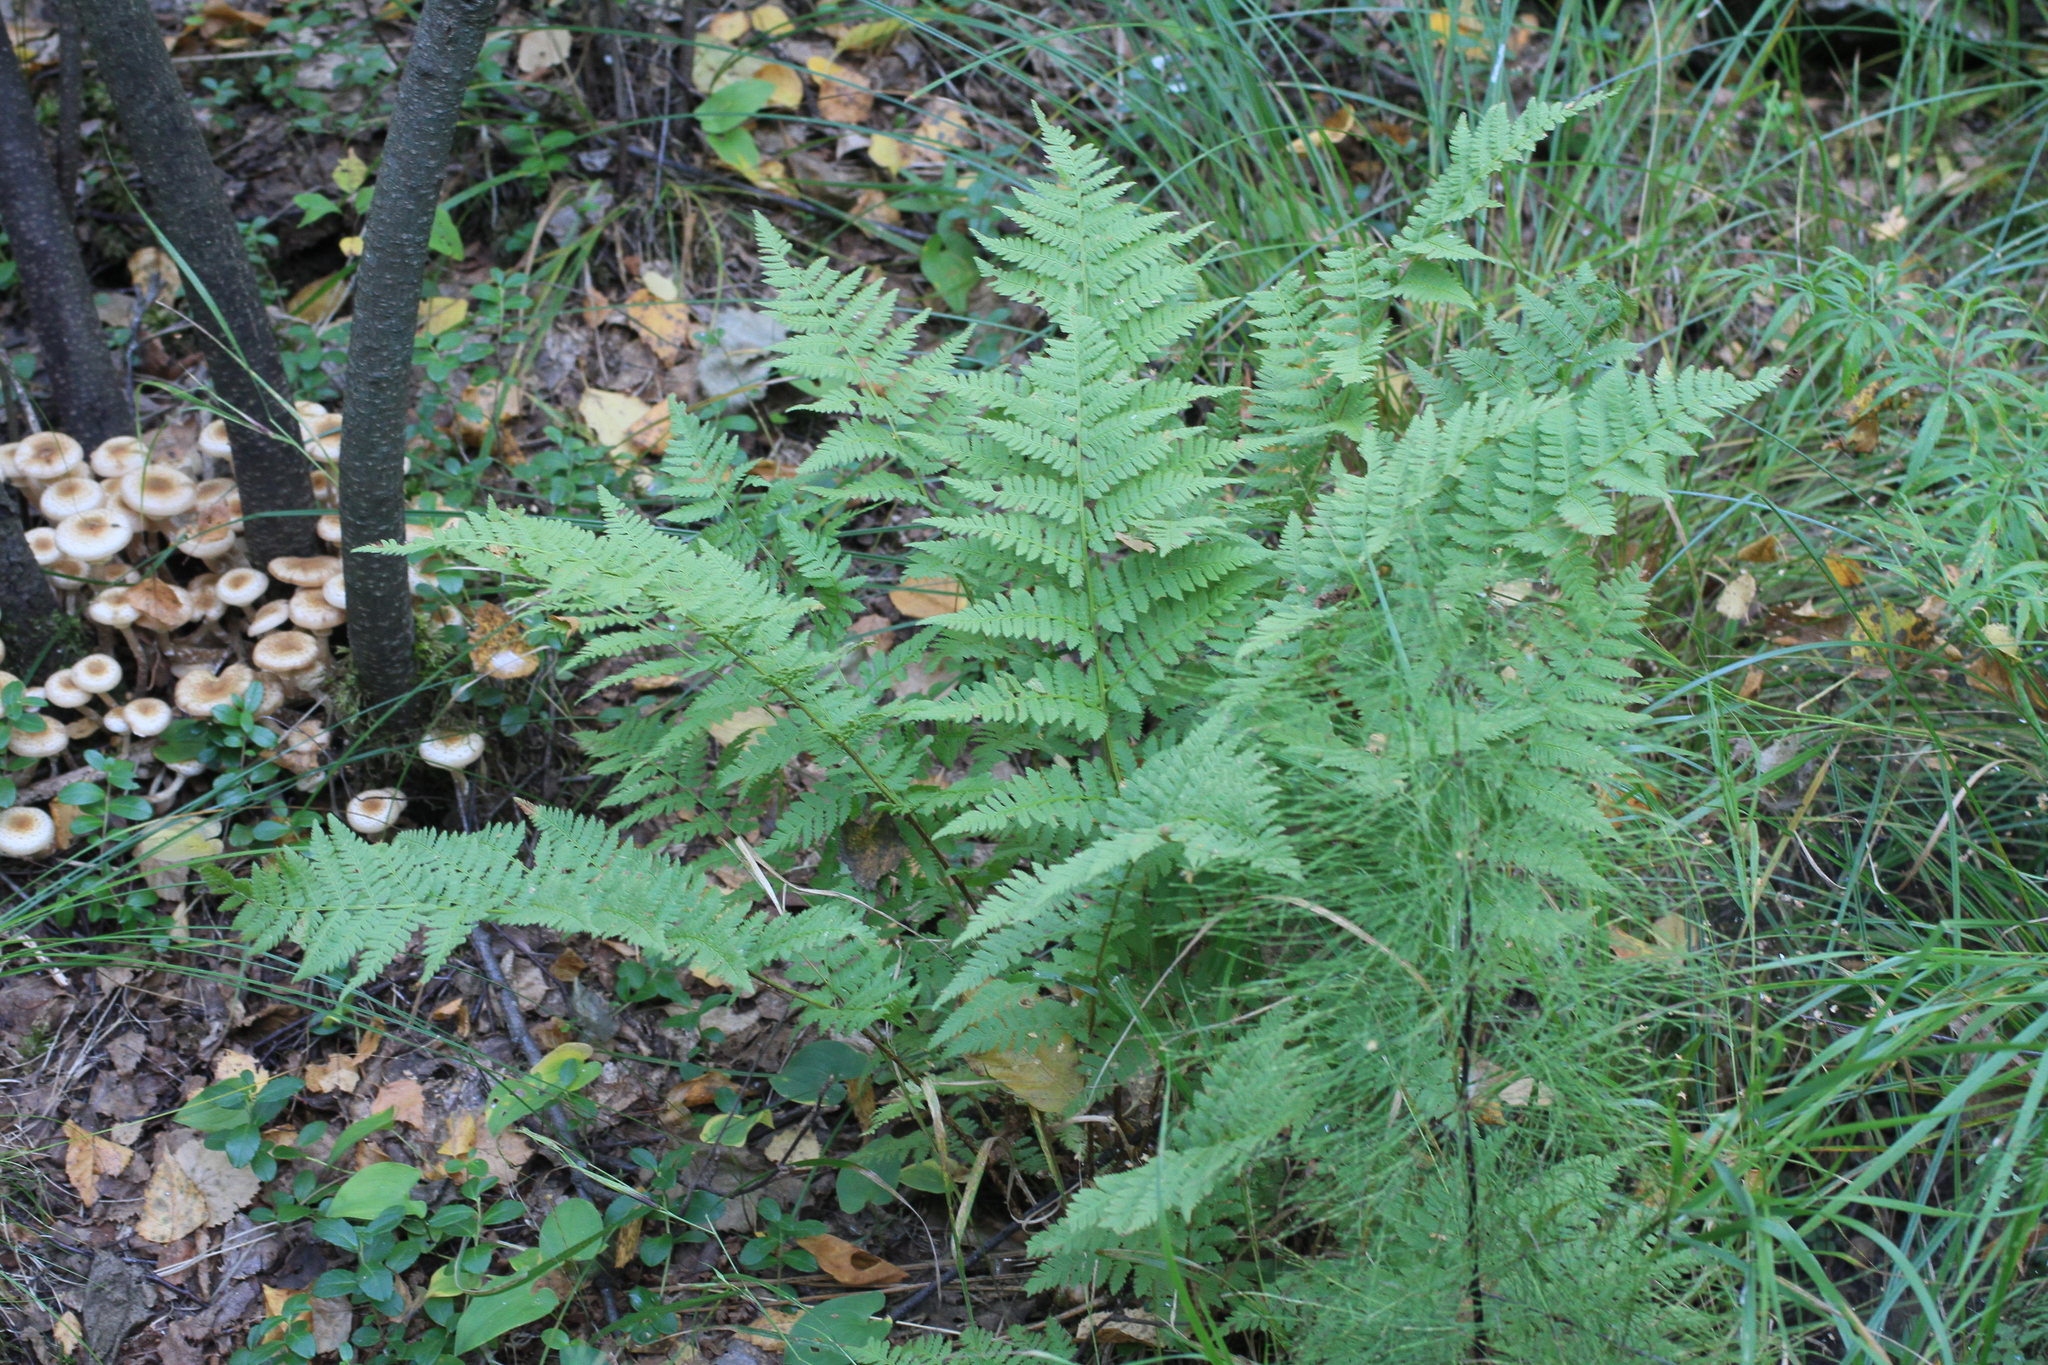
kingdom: Plantae
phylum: Tracheophyta
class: Polypodiopsida
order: Polypodiales
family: Dryopteridaceae
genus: Dryopteris
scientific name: Dryopteris carthusiana
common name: Narrow buckler-fern
